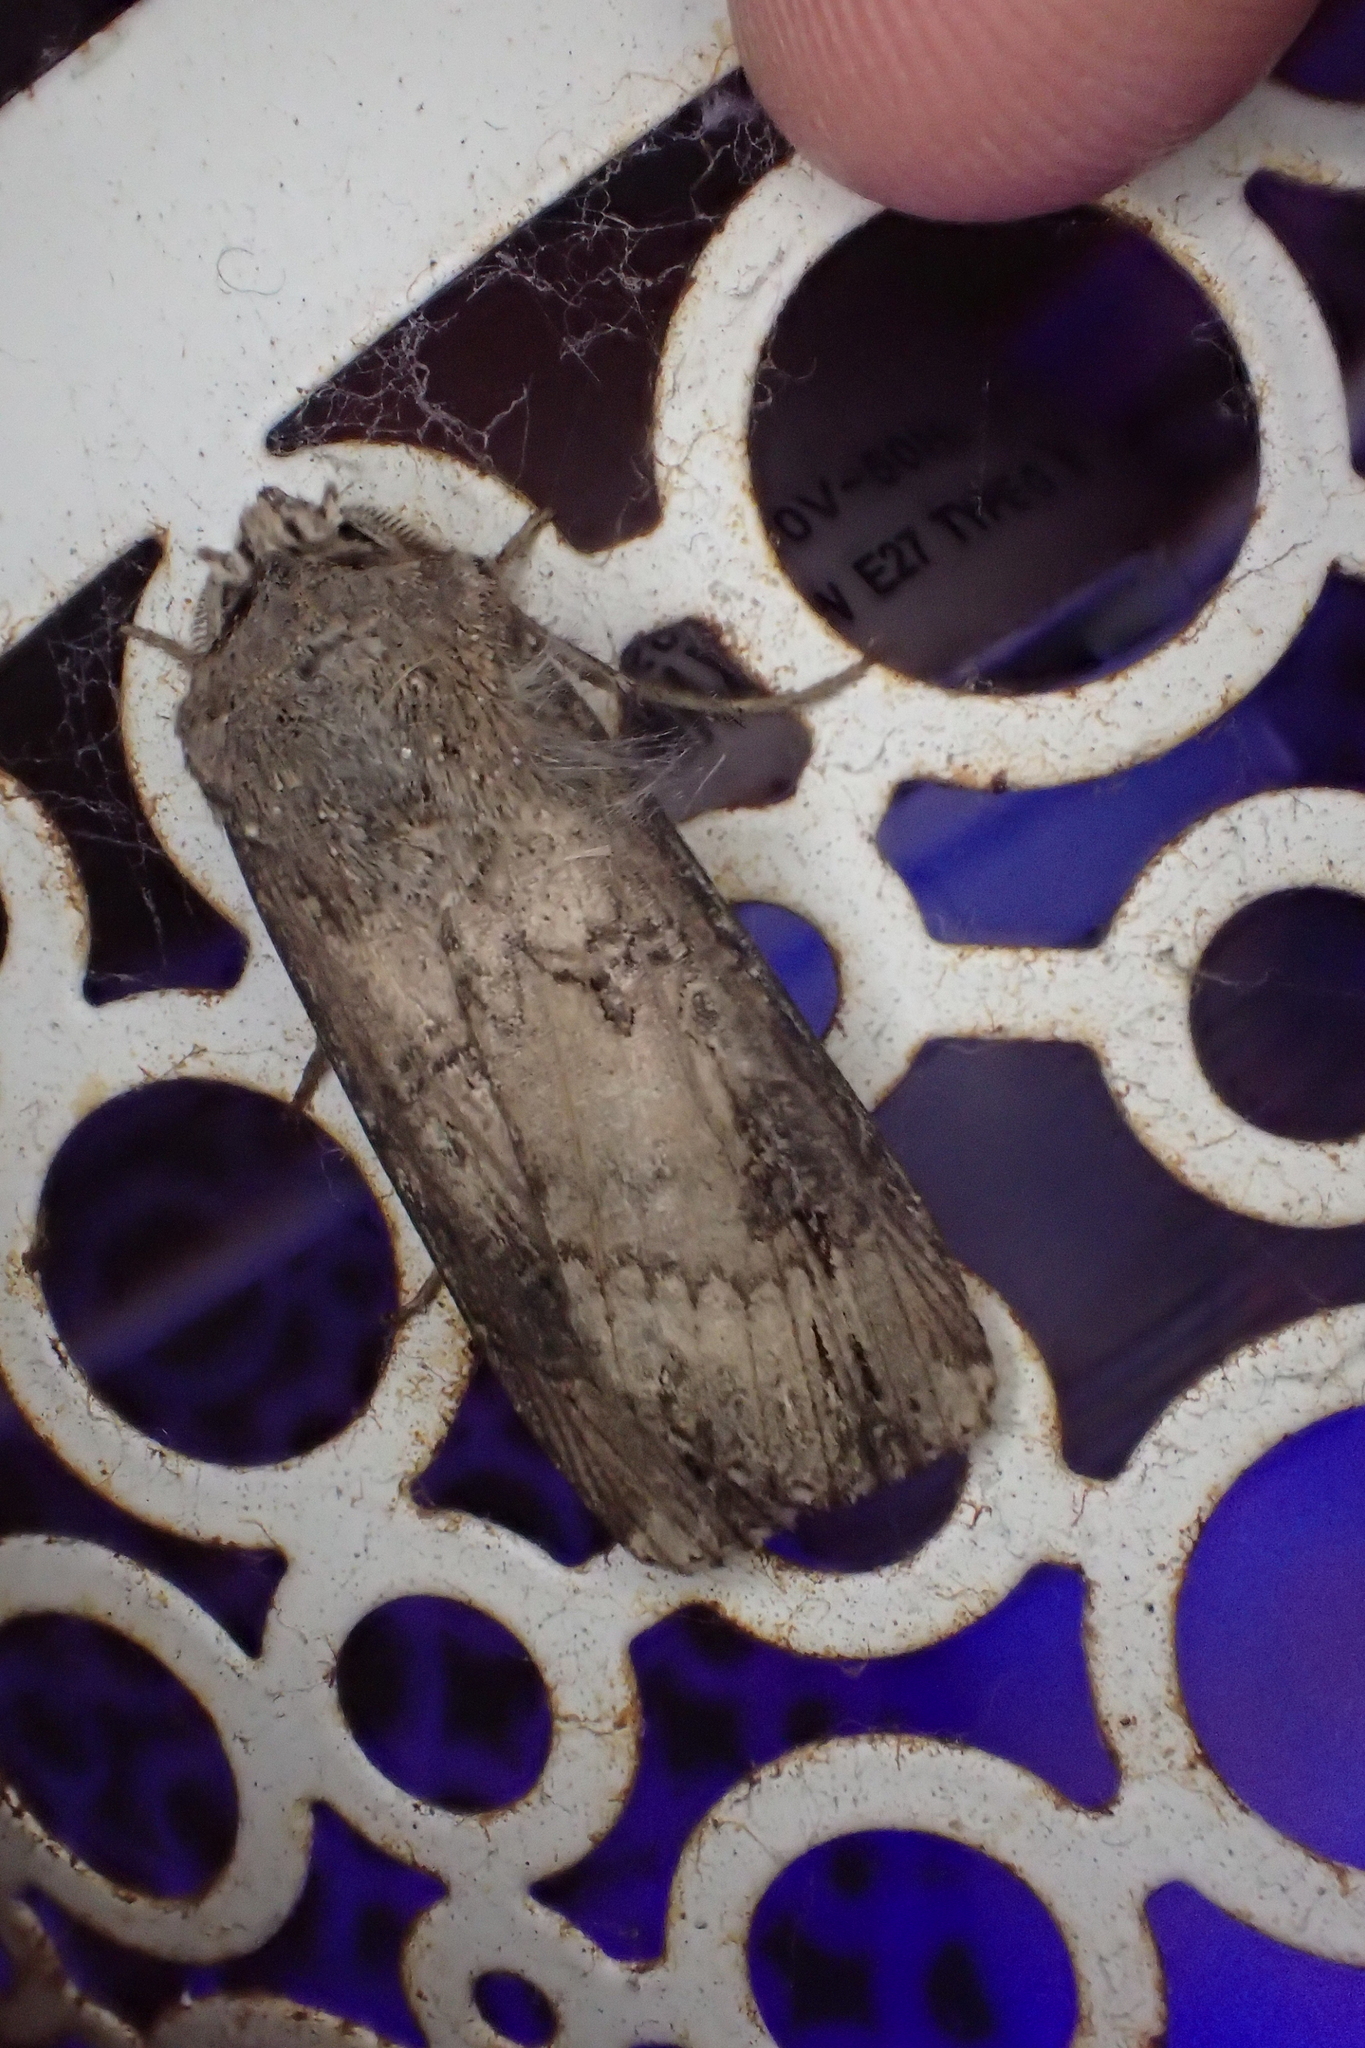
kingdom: Animalia
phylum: Arthropoda
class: Insecta
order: Lepidoptera
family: Noctuidae
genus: Agrotis
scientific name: Agrotis ipsilon
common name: Dark sword-grass
